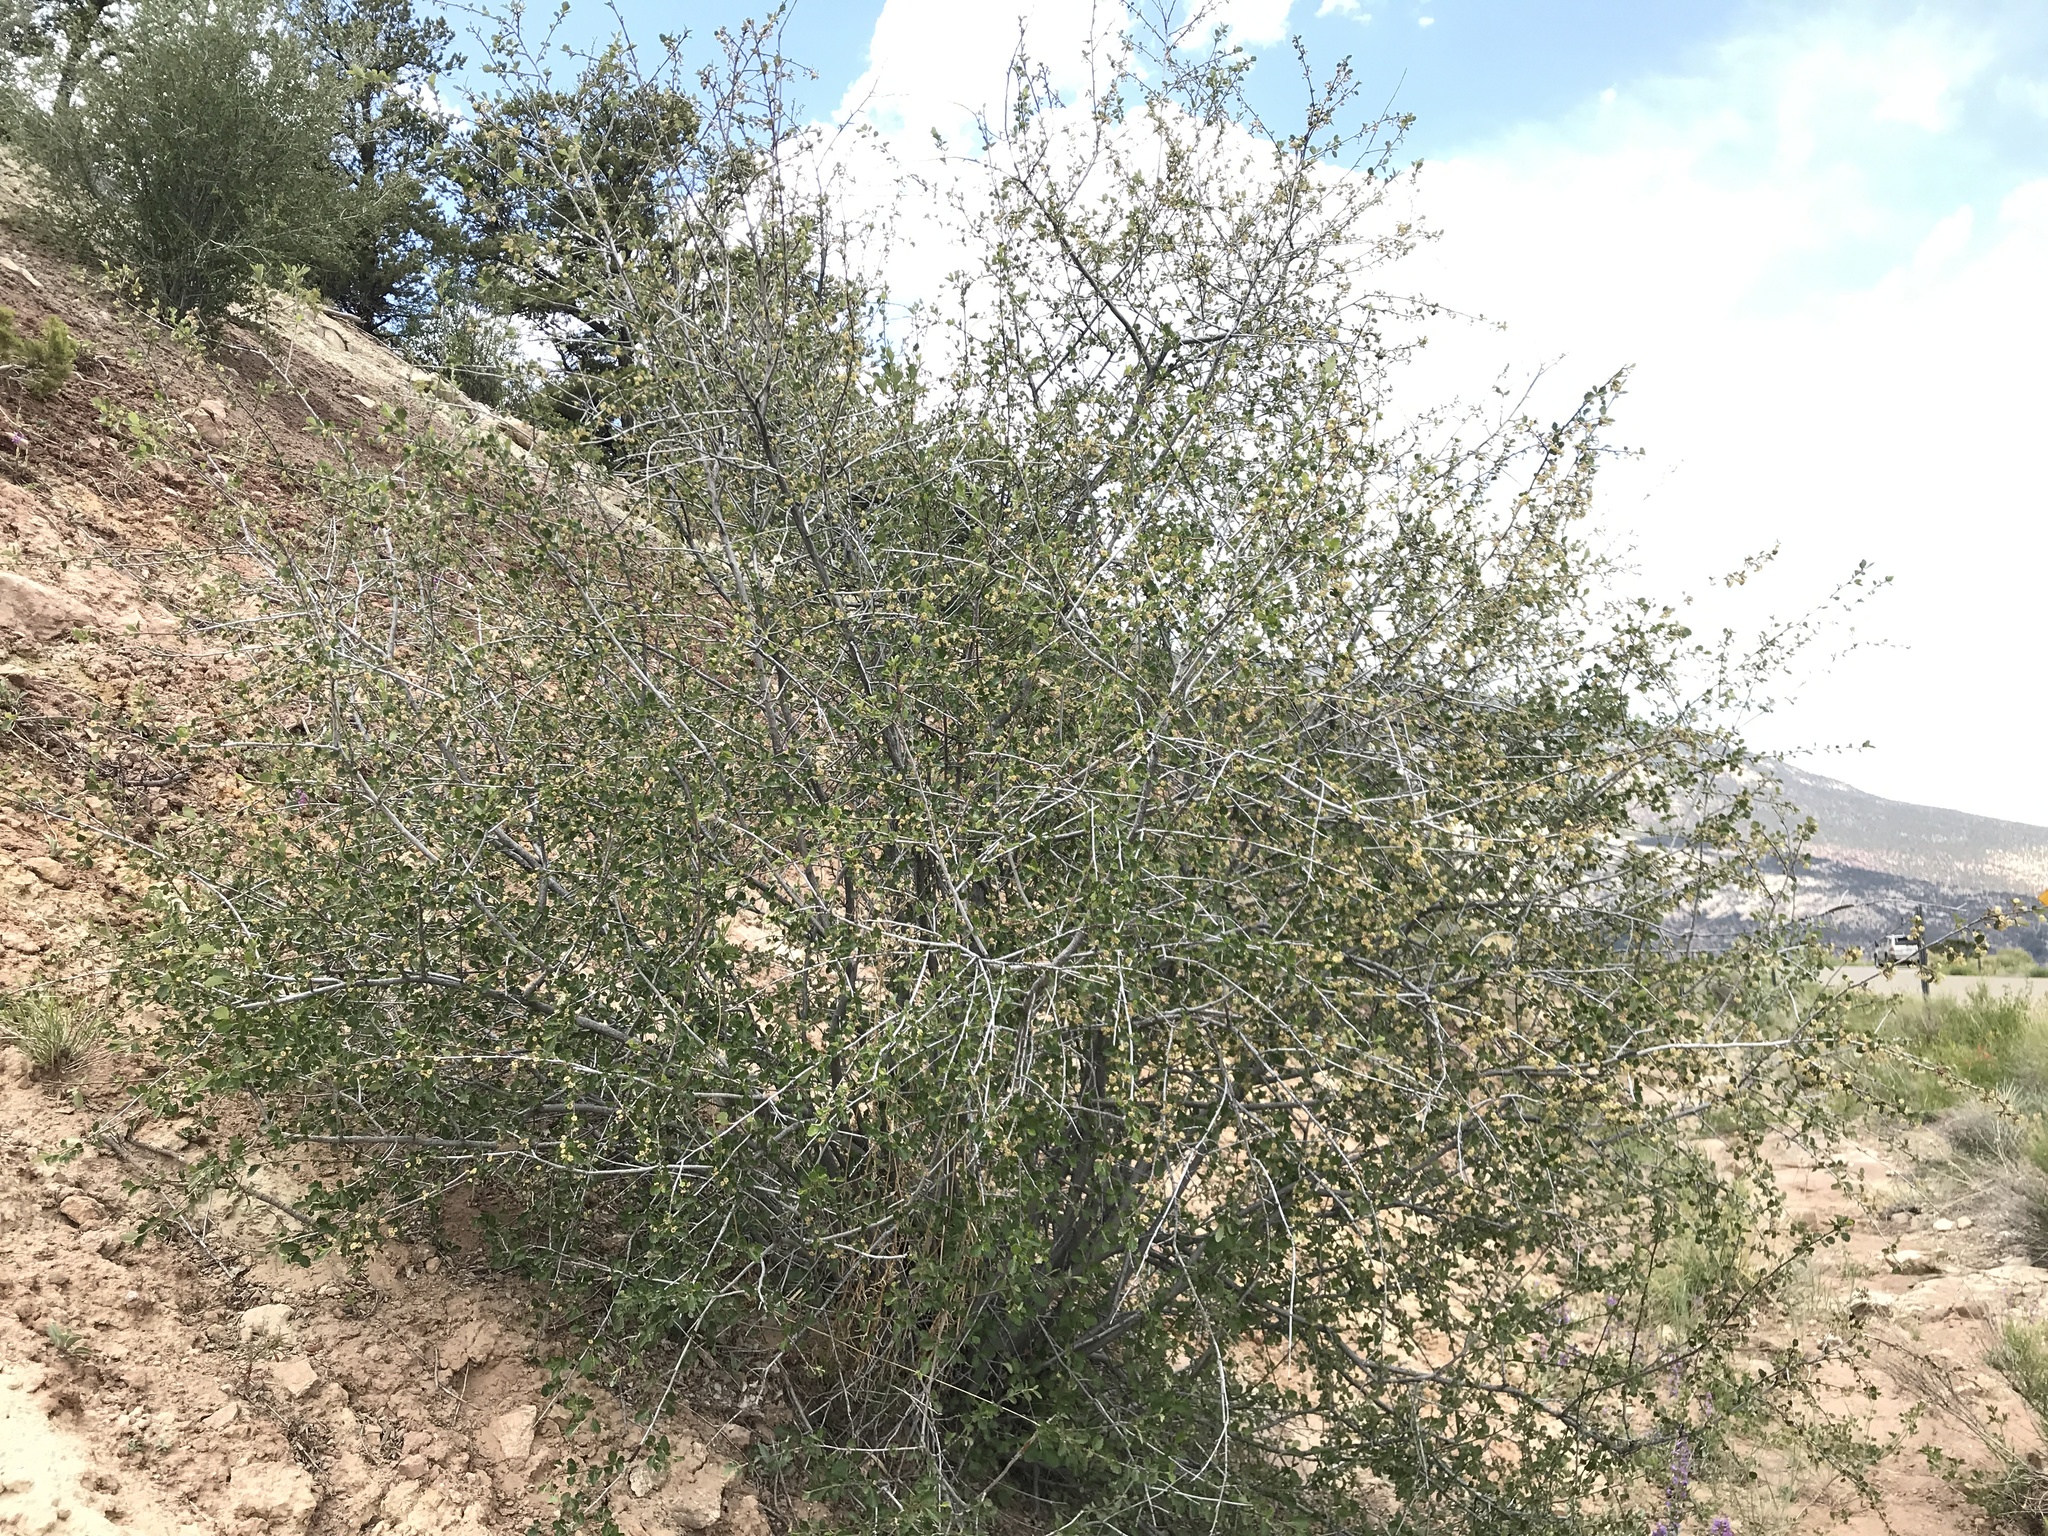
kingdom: Plantae
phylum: Tracheophyta
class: Magnoliopsida
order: Rosales
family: Rosaceae
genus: Cercocarpus
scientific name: Cercocarpus montanus
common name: Alder-leaf cercocarpus
